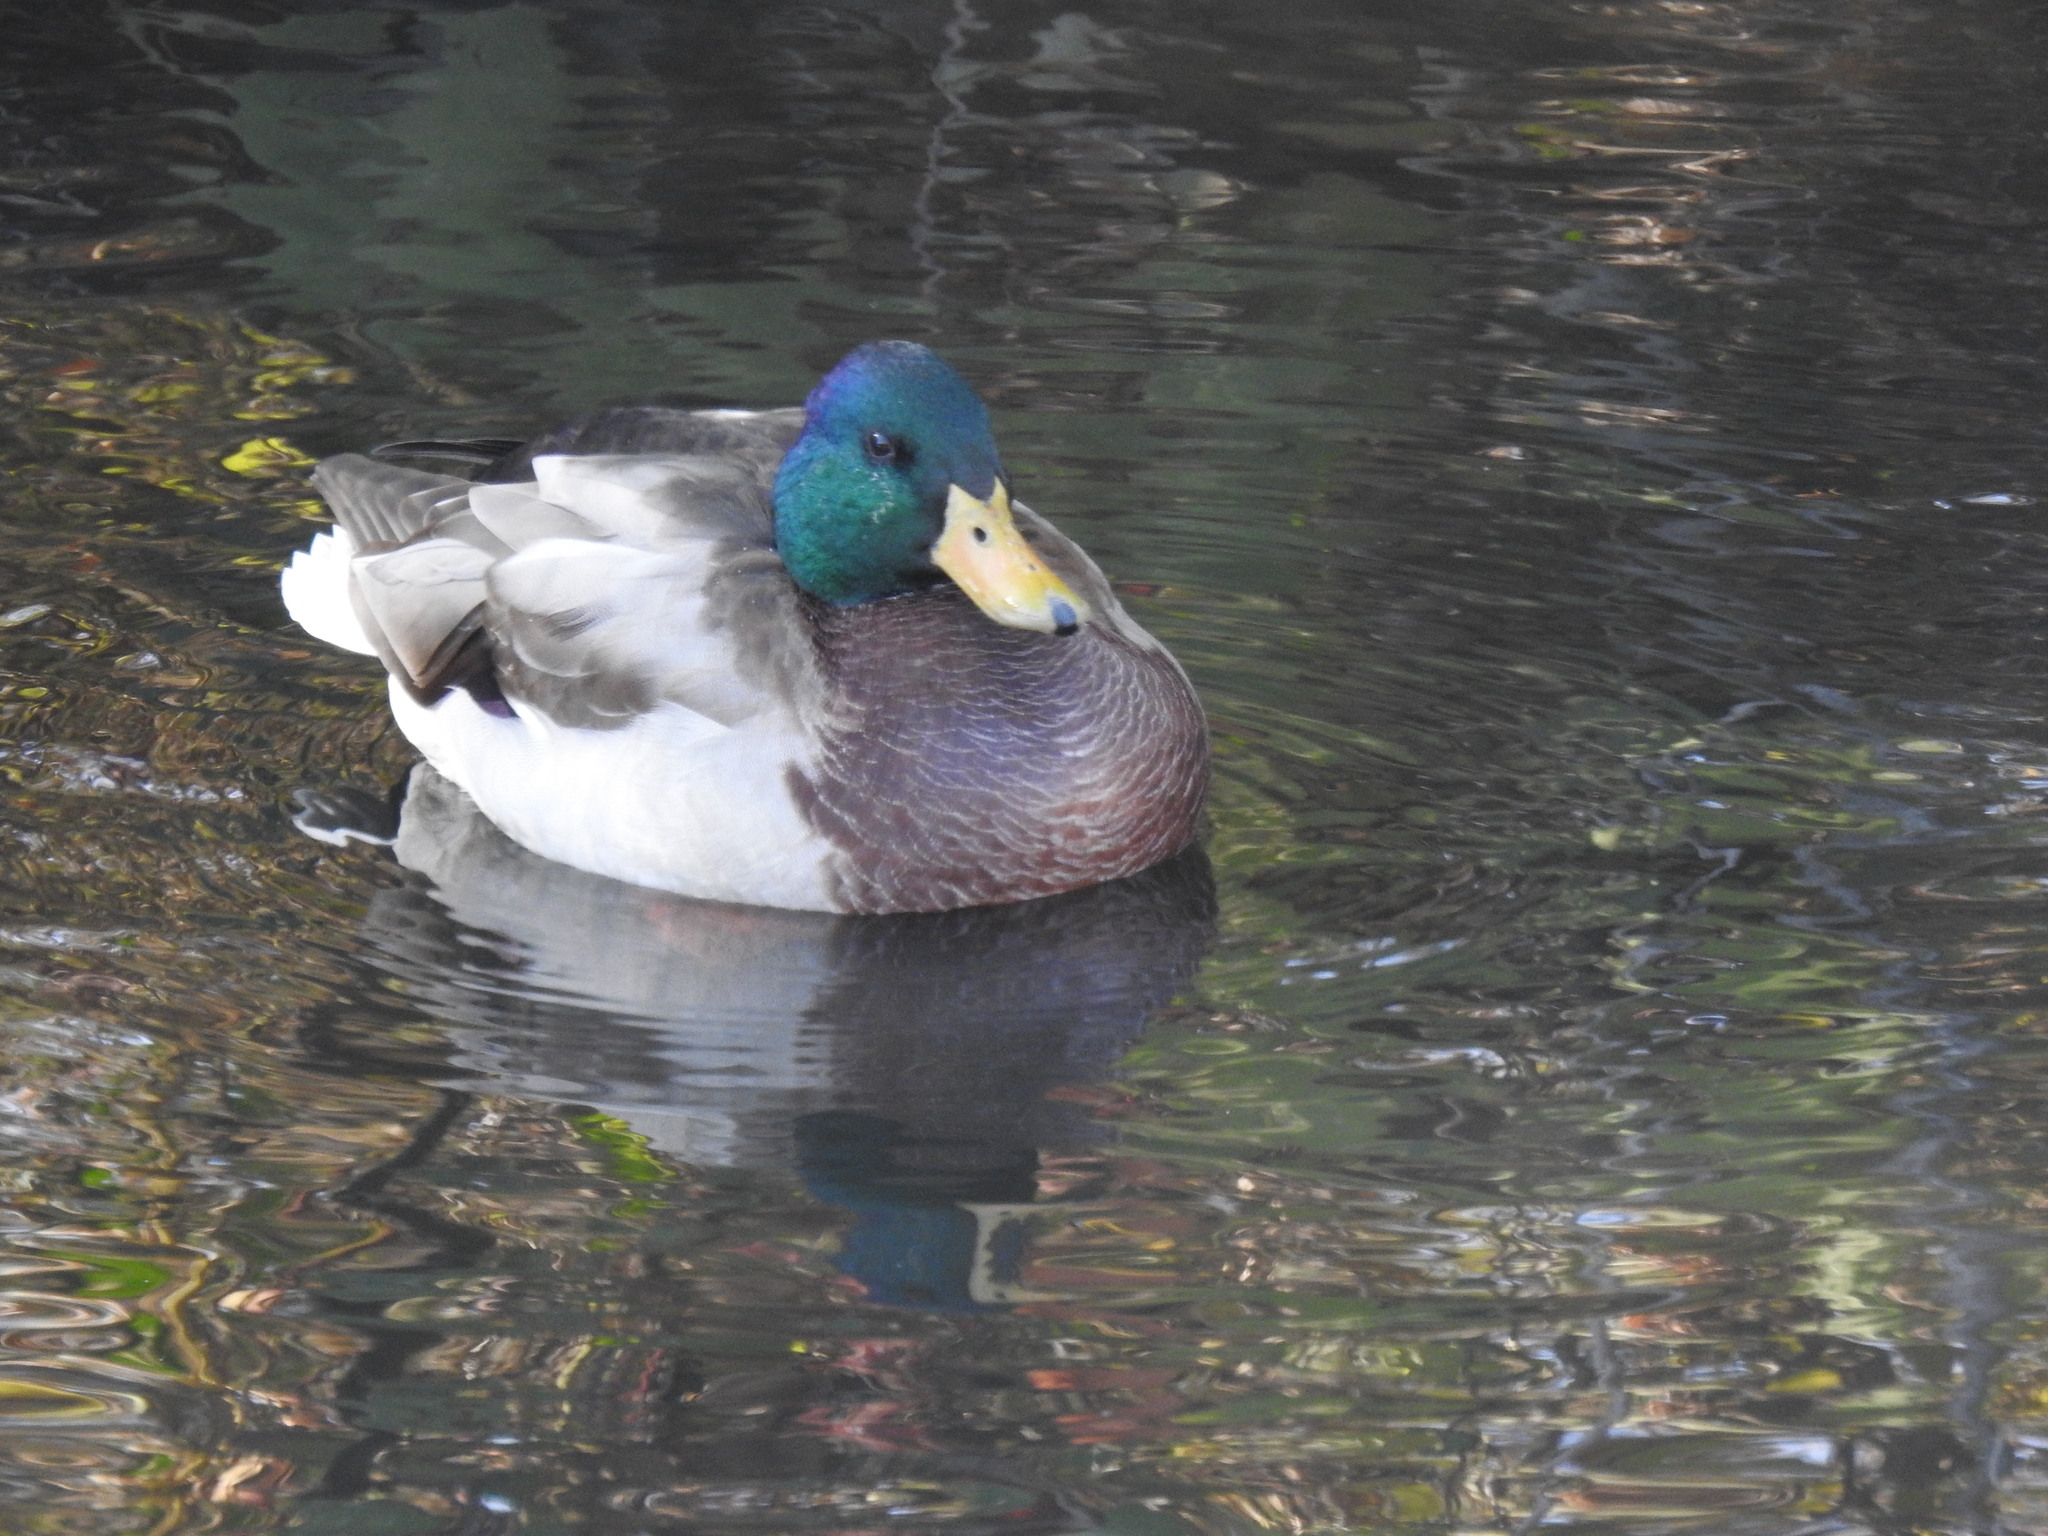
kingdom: Animalia
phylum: Chordata
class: Aves
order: Anseriformes
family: Anatidae
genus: Anas
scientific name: Anas platyrhynchos
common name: Mallard
